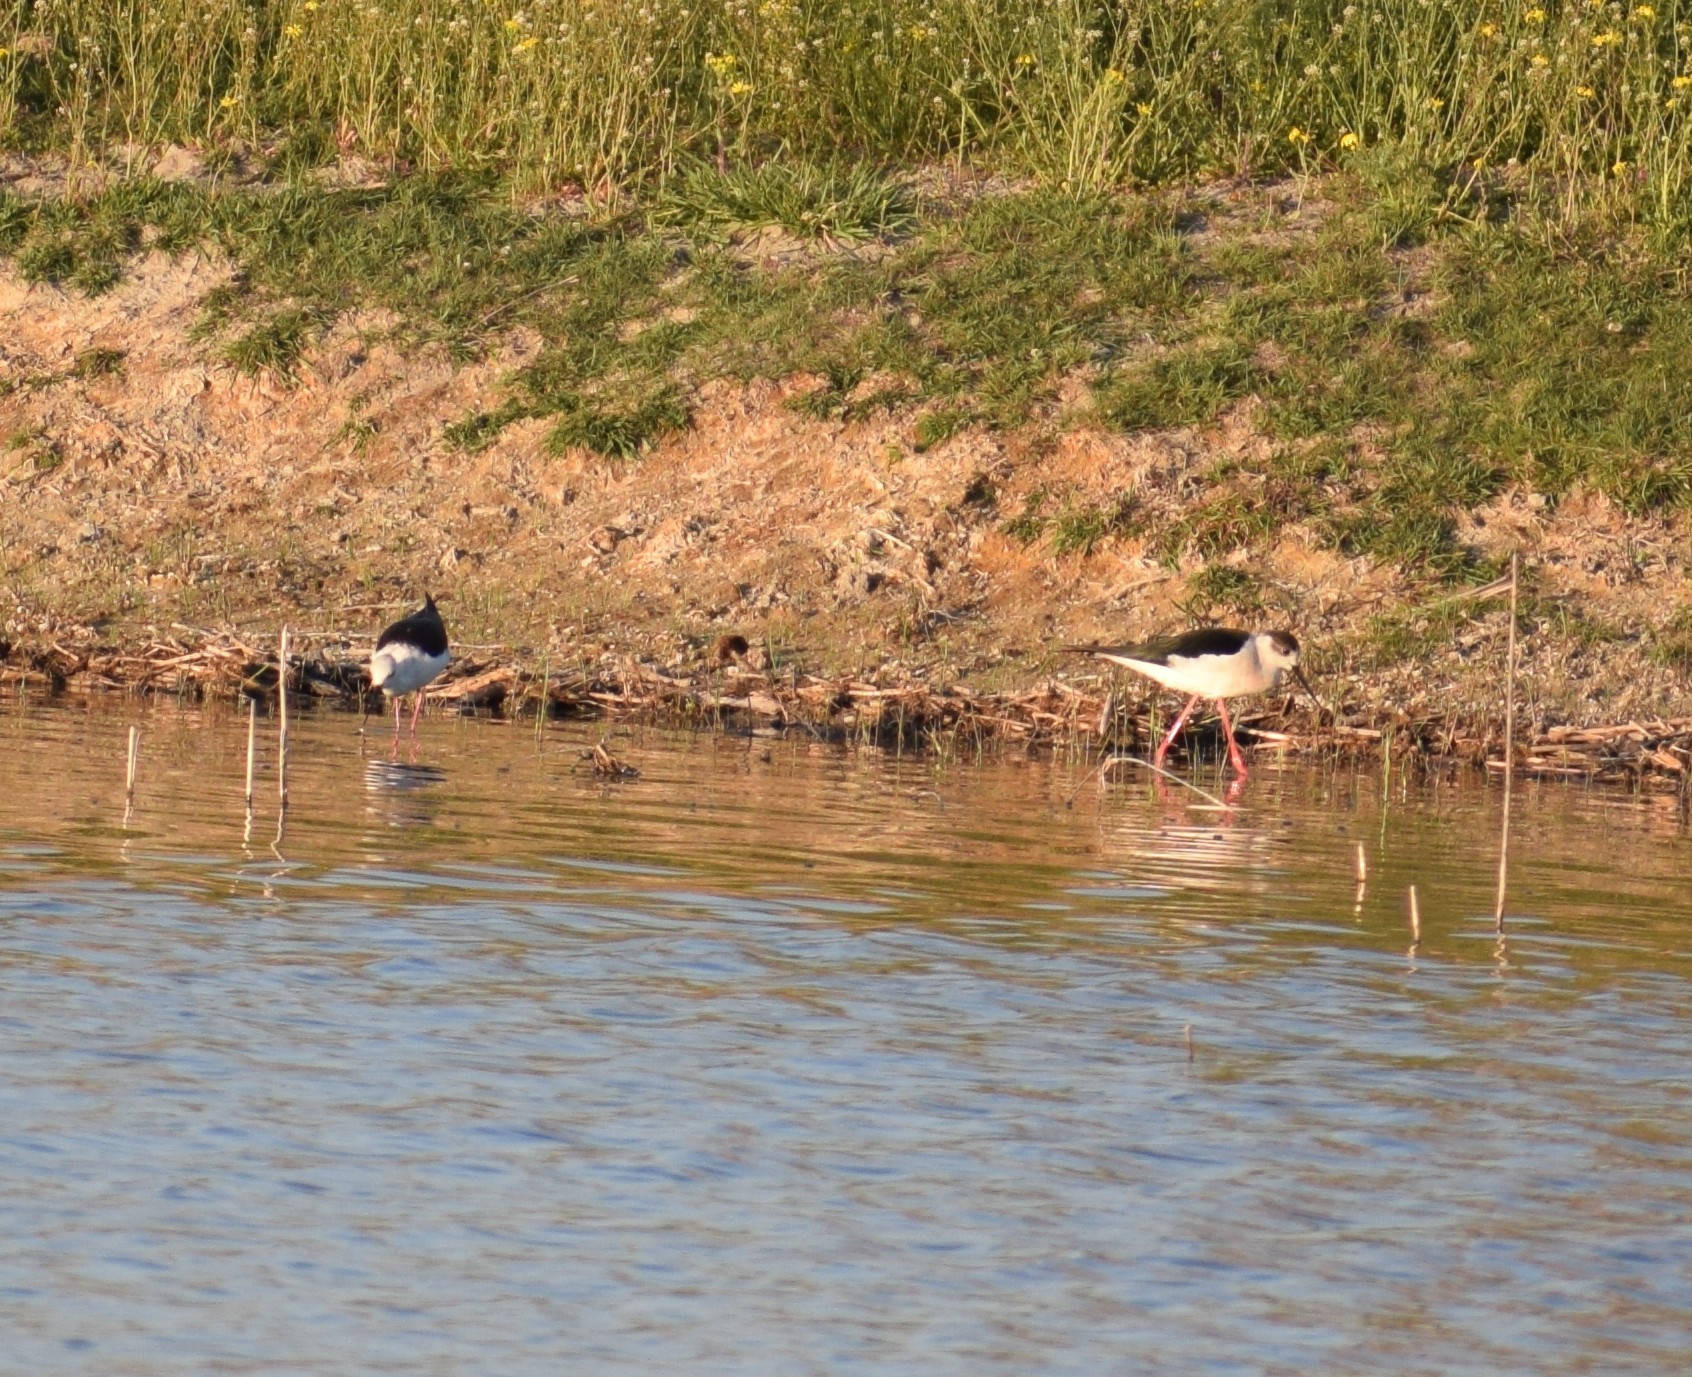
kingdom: Animalia
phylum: Chordata
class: Aves
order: Charadriiformes
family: Recurvirostridae
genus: Himantopus
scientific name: Himantopus himantopus
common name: Black-winged stilt
